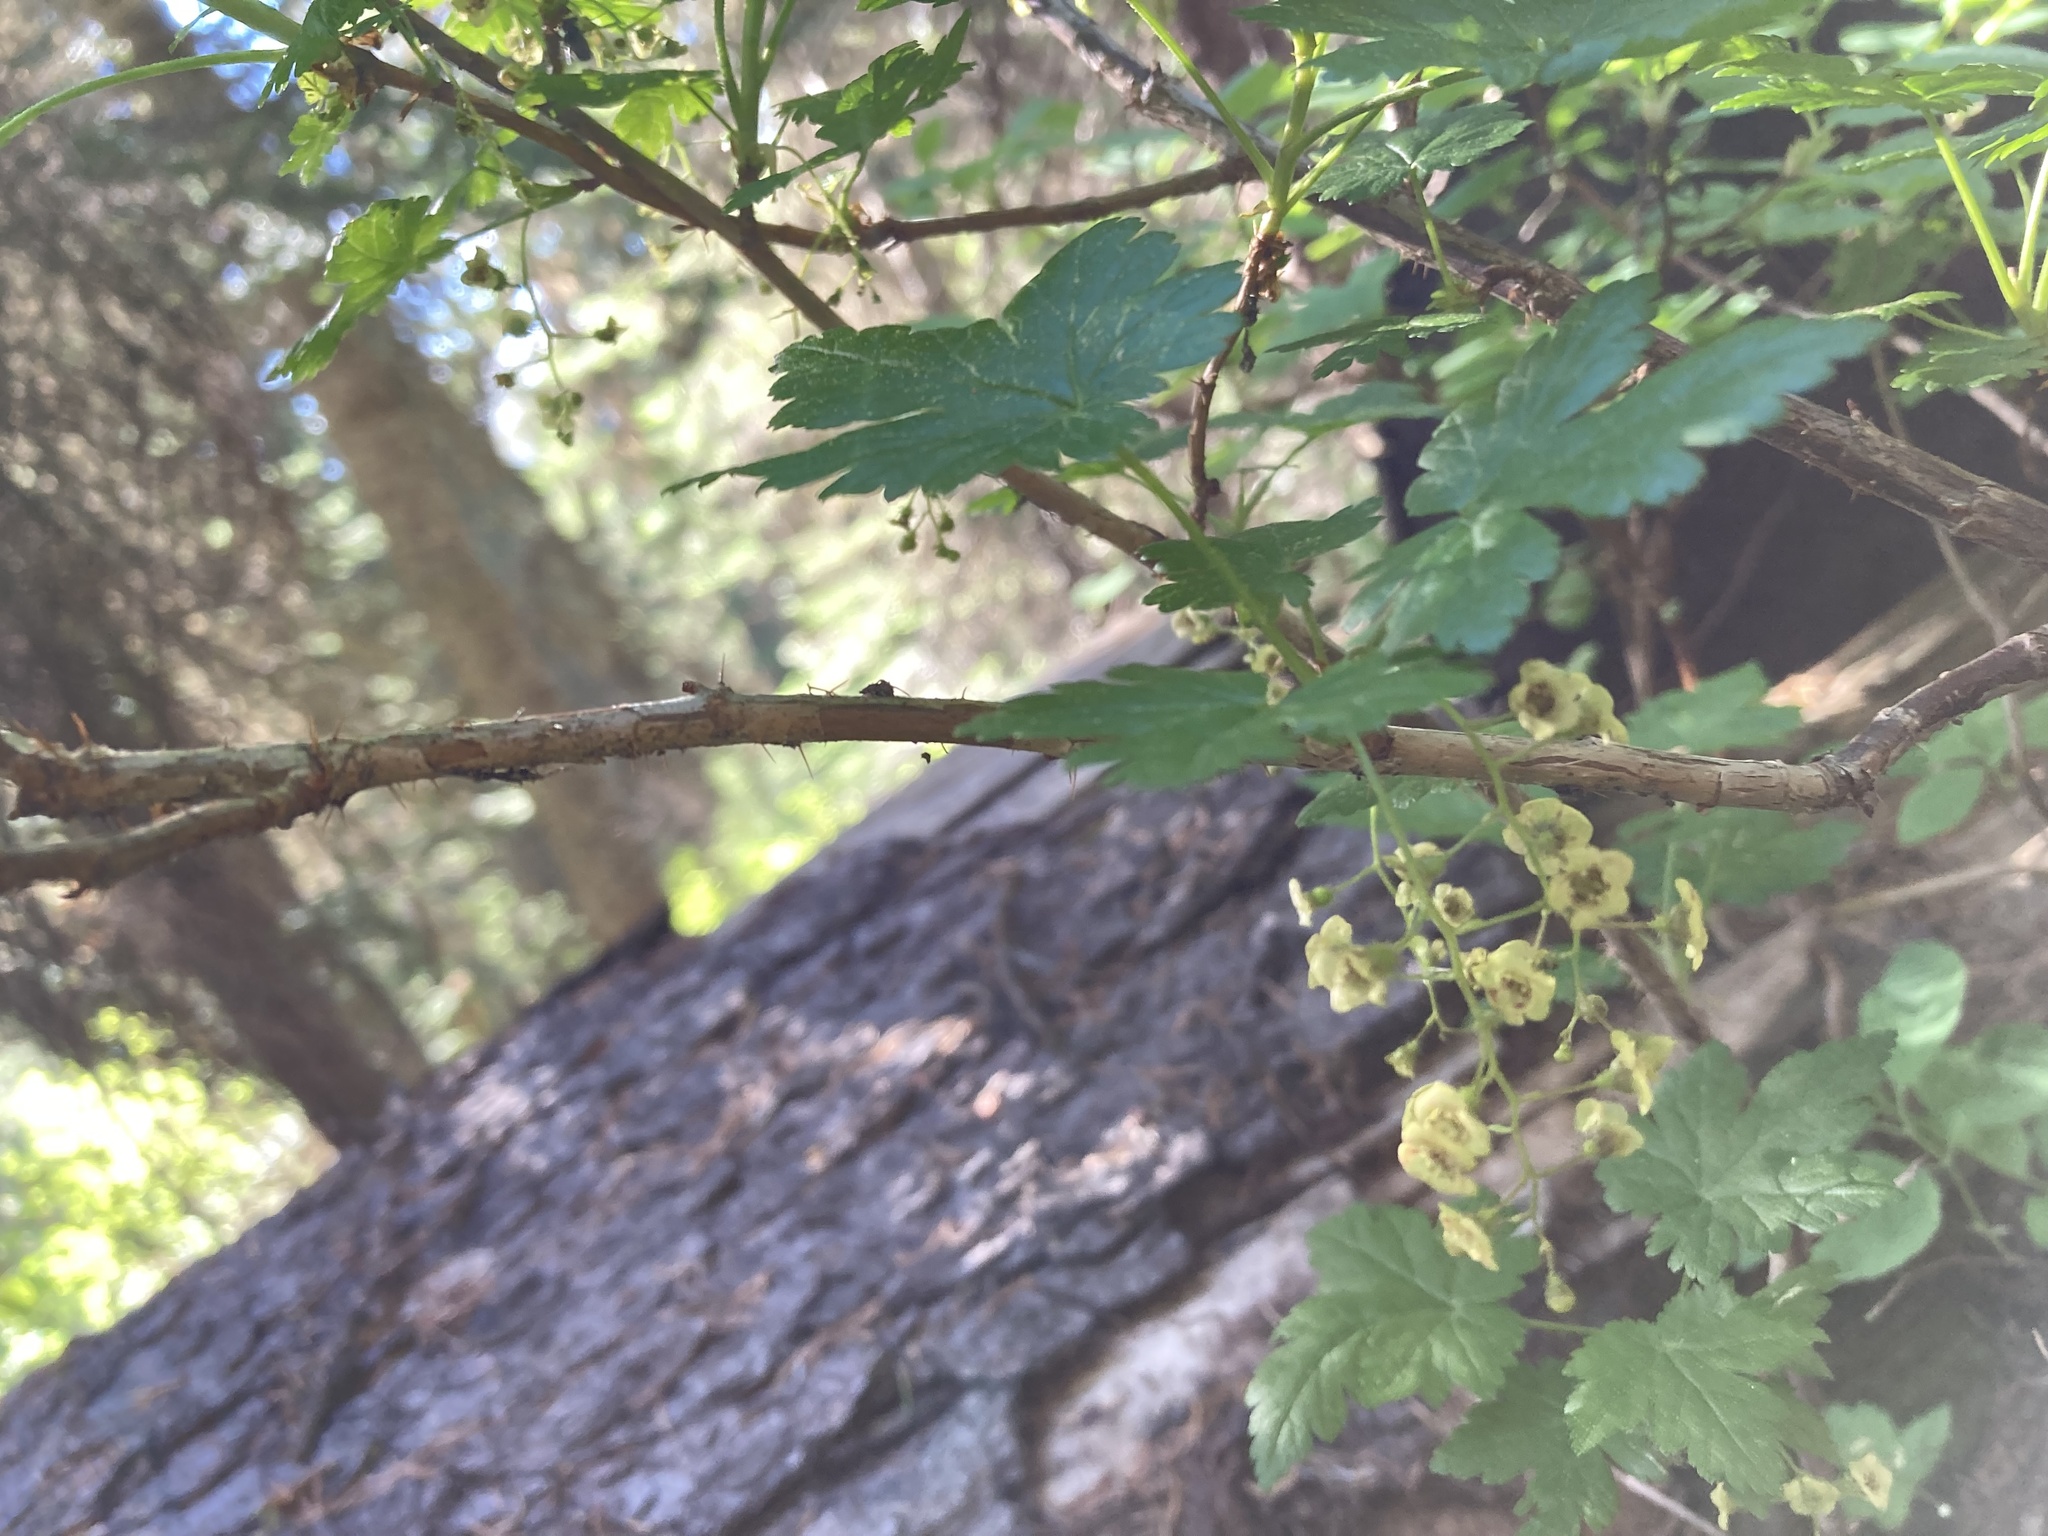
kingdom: Plantae
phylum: Tracheophyta
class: Magnoliopsida
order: Saxifragales
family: Grossulariaceae
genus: Ribes
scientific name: Ribes lacustre
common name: Black gooseberry
